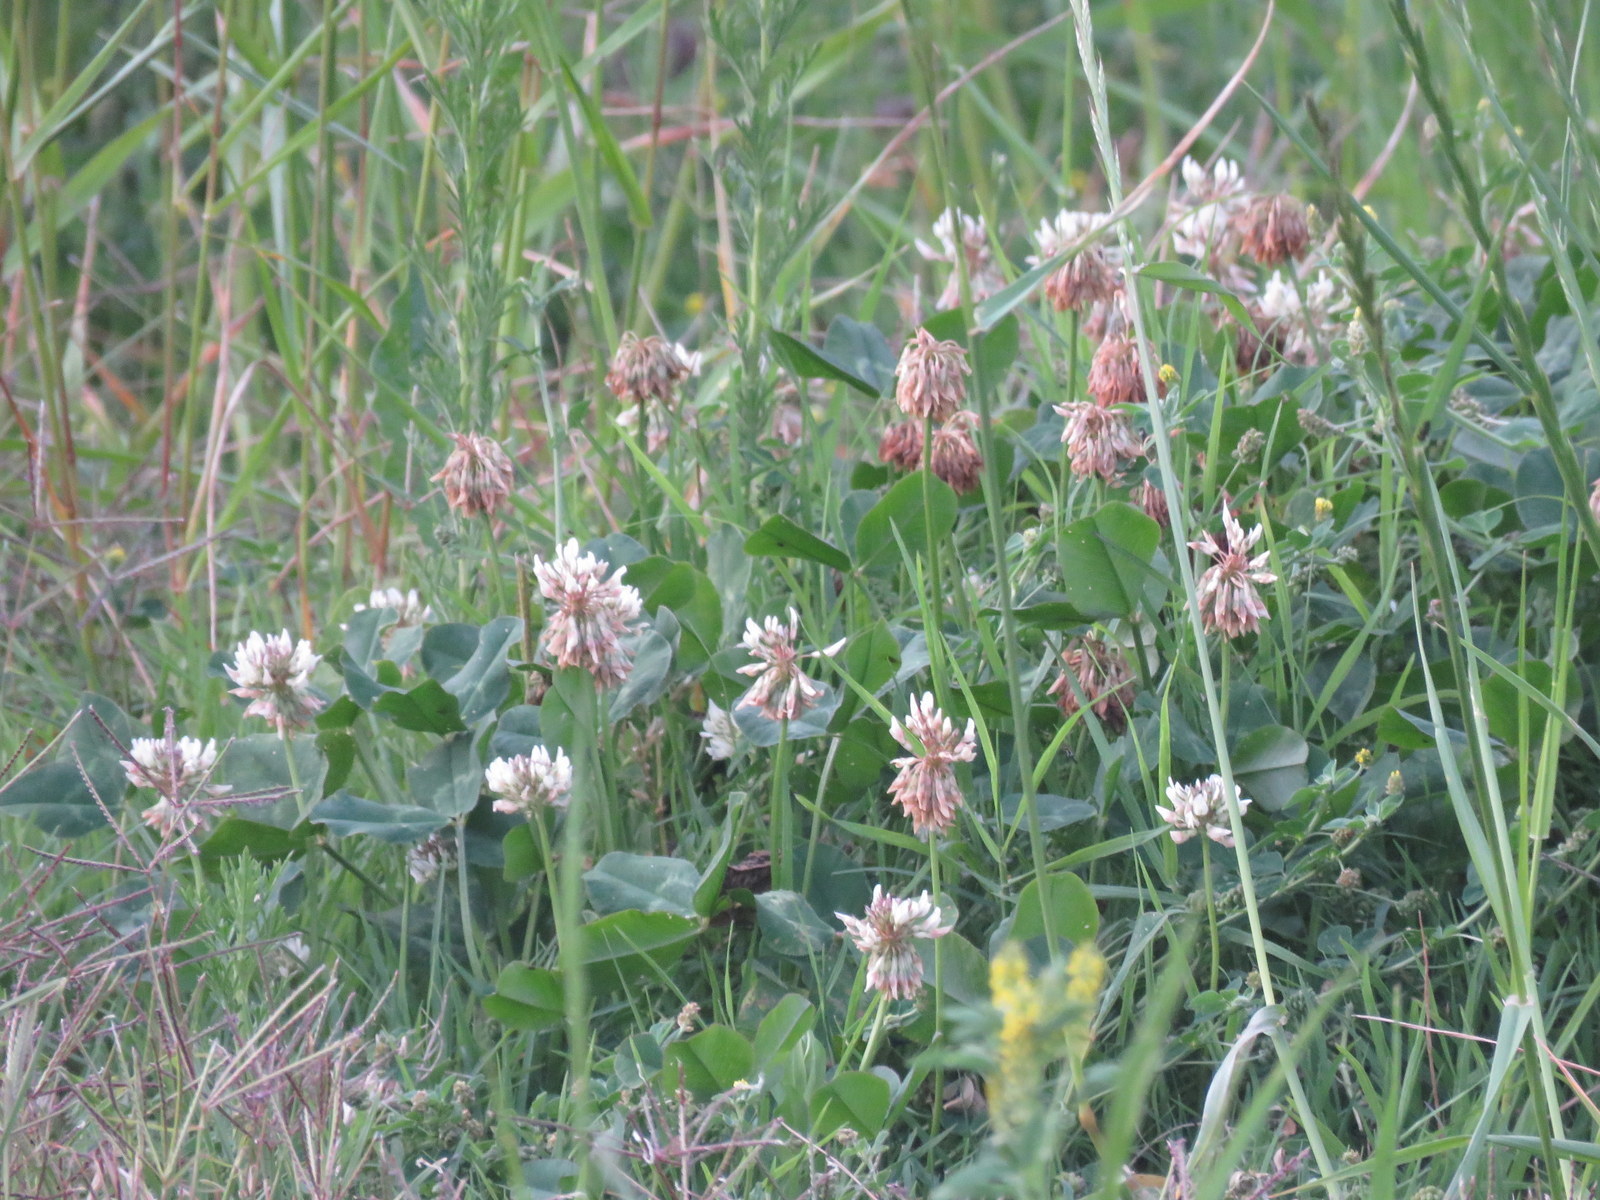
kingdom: Plantae
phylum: Tracheophyta
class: Magnoliopsida
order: Fabales
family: Fabaceae
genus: Trifolium
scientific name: Trifolium repens
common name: White clover
